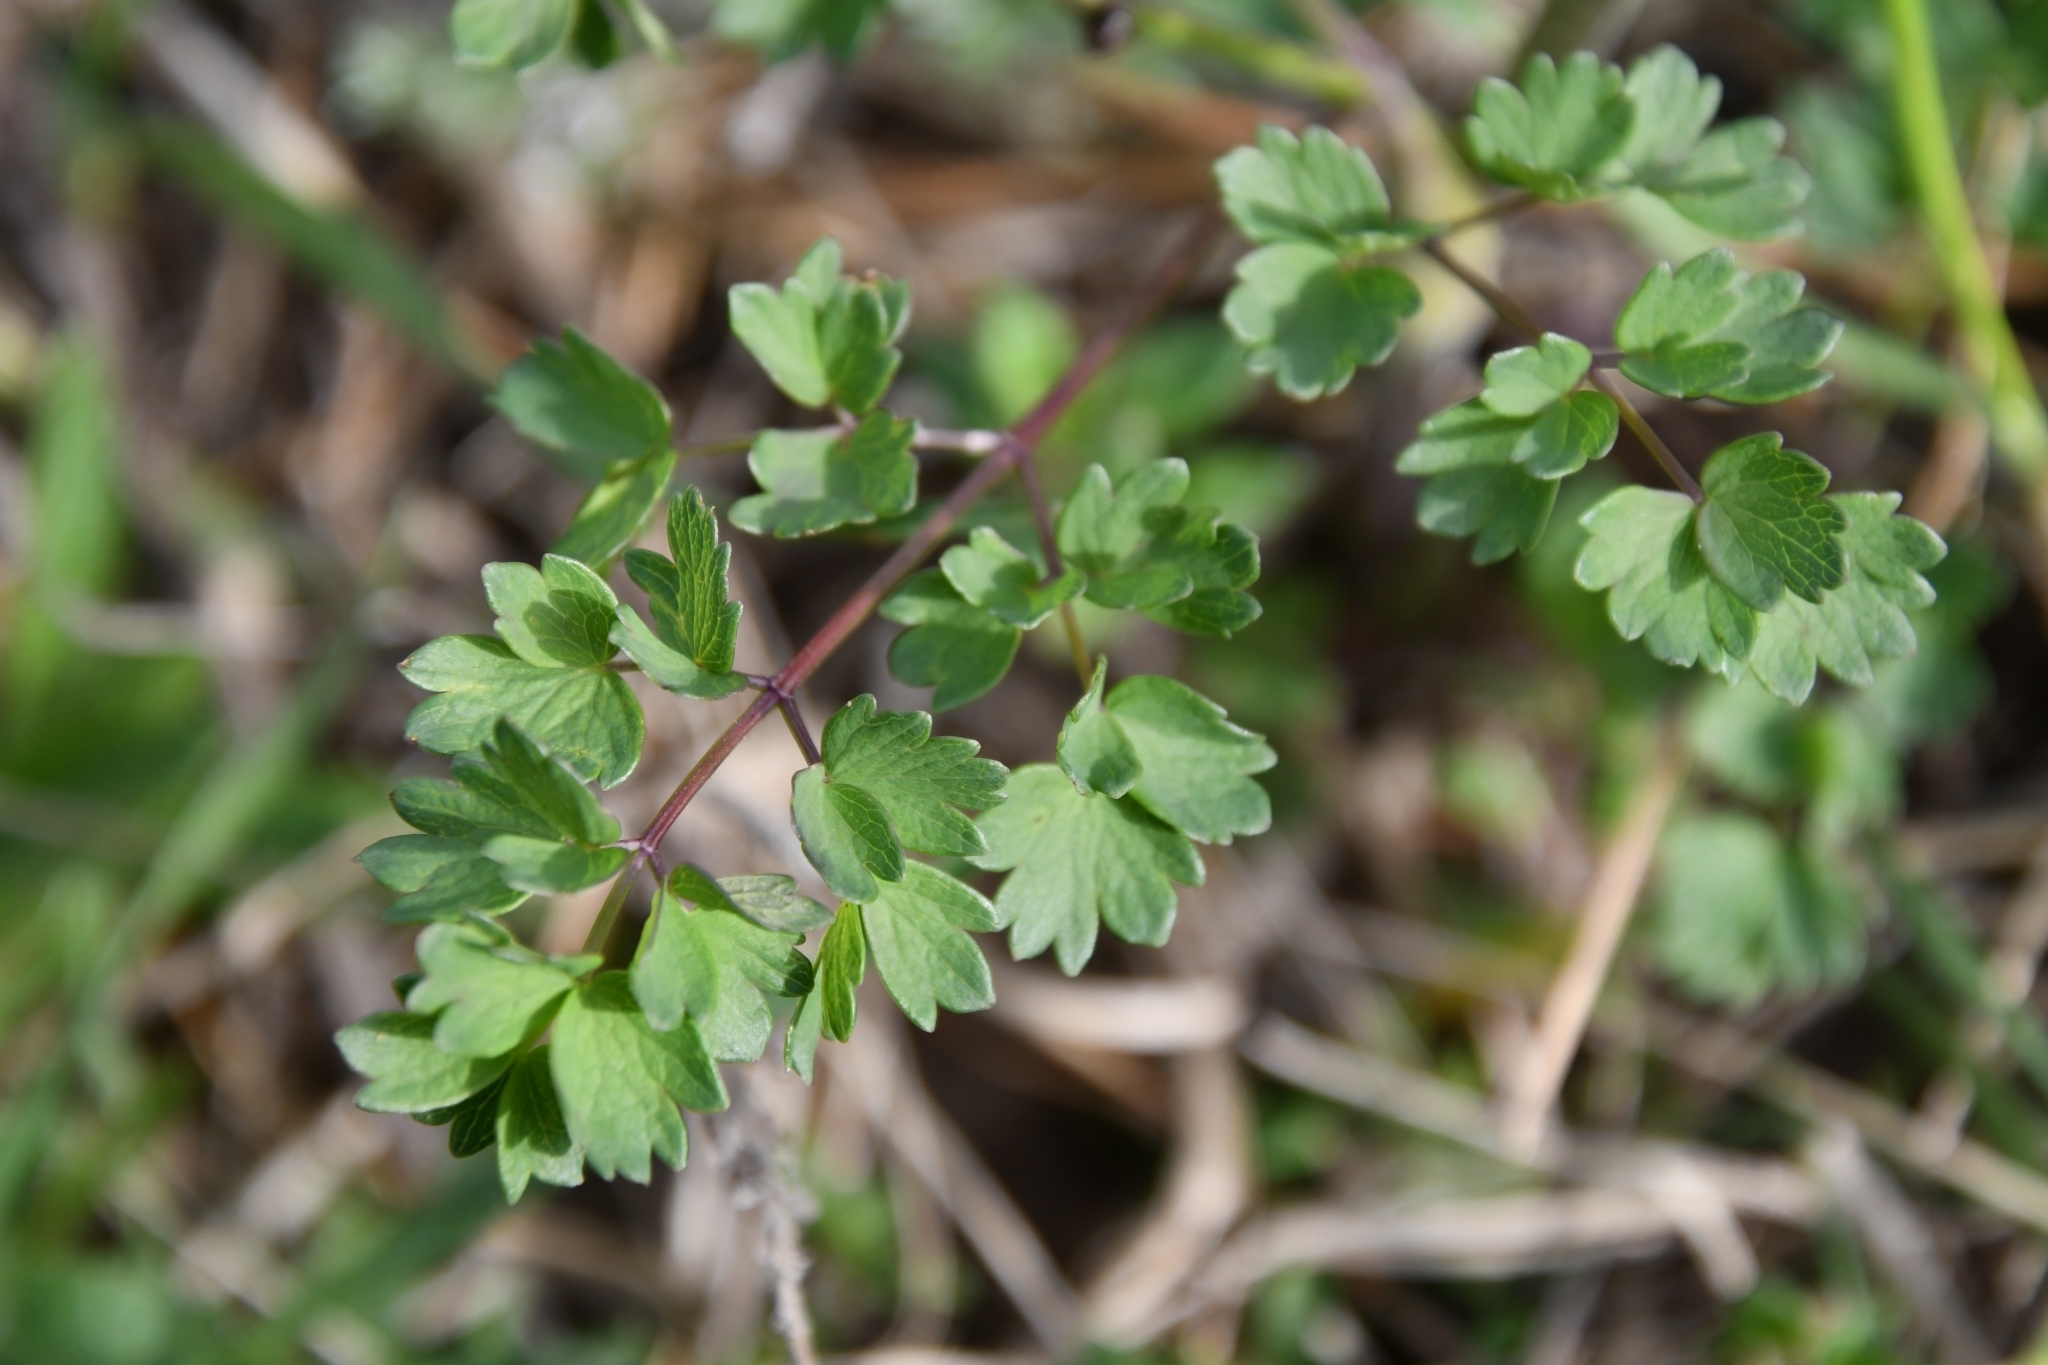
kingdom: Plantae
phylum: Tracheophyta
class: Magnoliopsida
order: Ranunculales
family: Ranunculaceae
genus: Thalictrum
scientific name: Thalictrum minus
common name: Lesser meadow-rue
